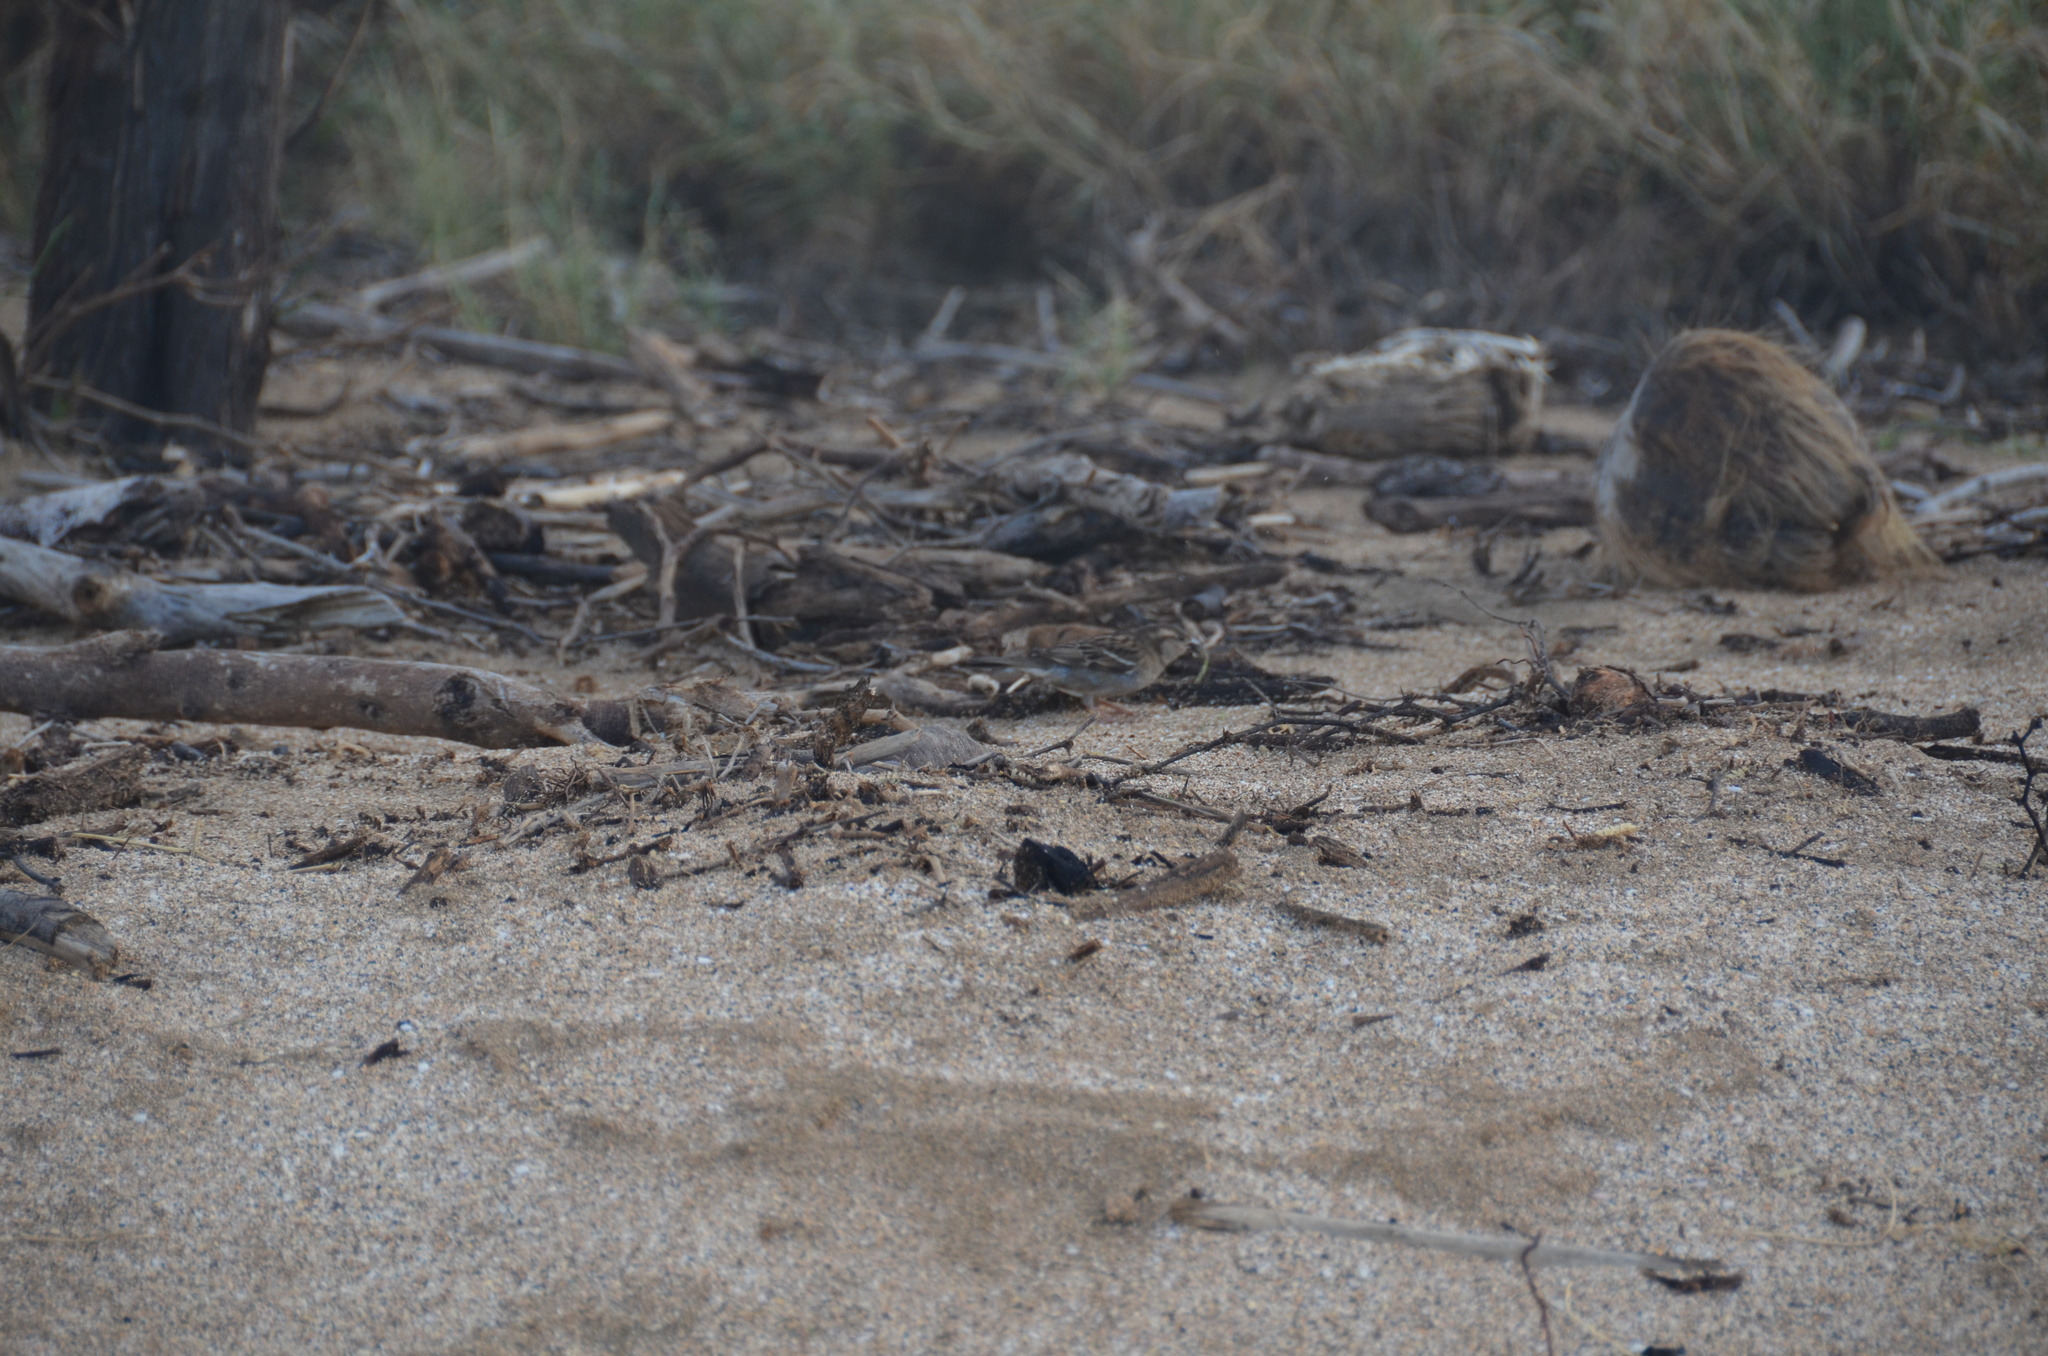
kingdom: Animalia
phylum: Chordata
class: Aves
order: Passeriformes
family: Passeridae
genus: Passer
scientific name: Passer domesticus
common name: House sparrow
